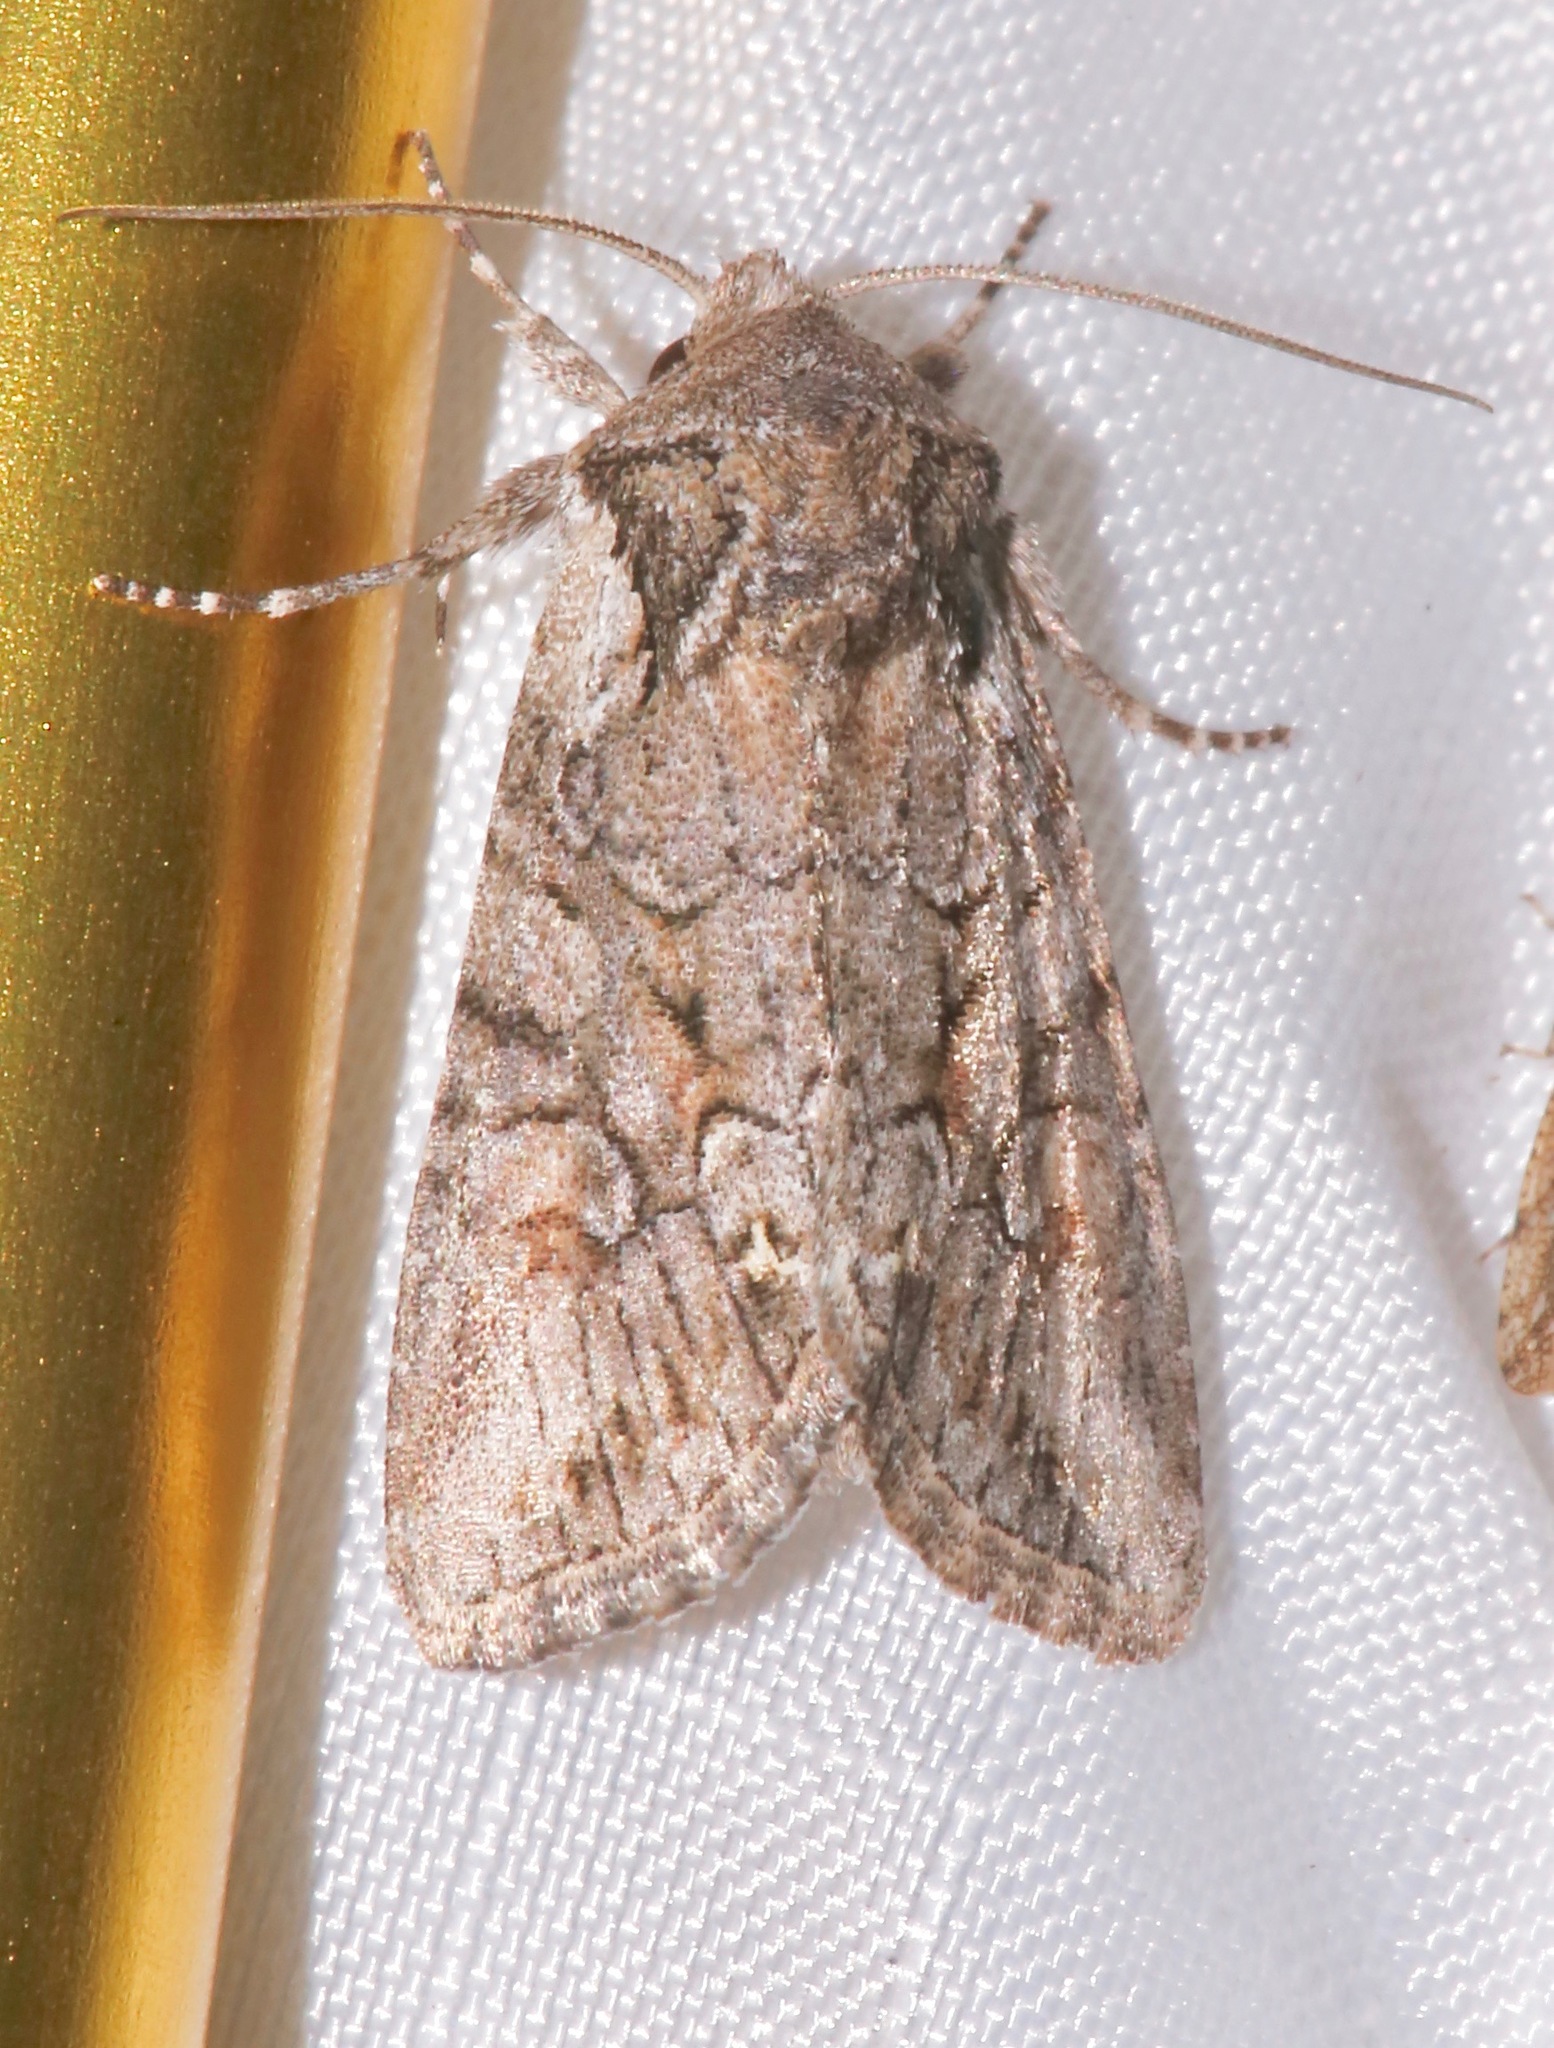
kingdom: Animalia
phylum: Arthropoda
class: Insecta
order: Lepidoptera
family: Noctuidae
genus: Lacinipolia
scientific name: Lacinipolia teligera
